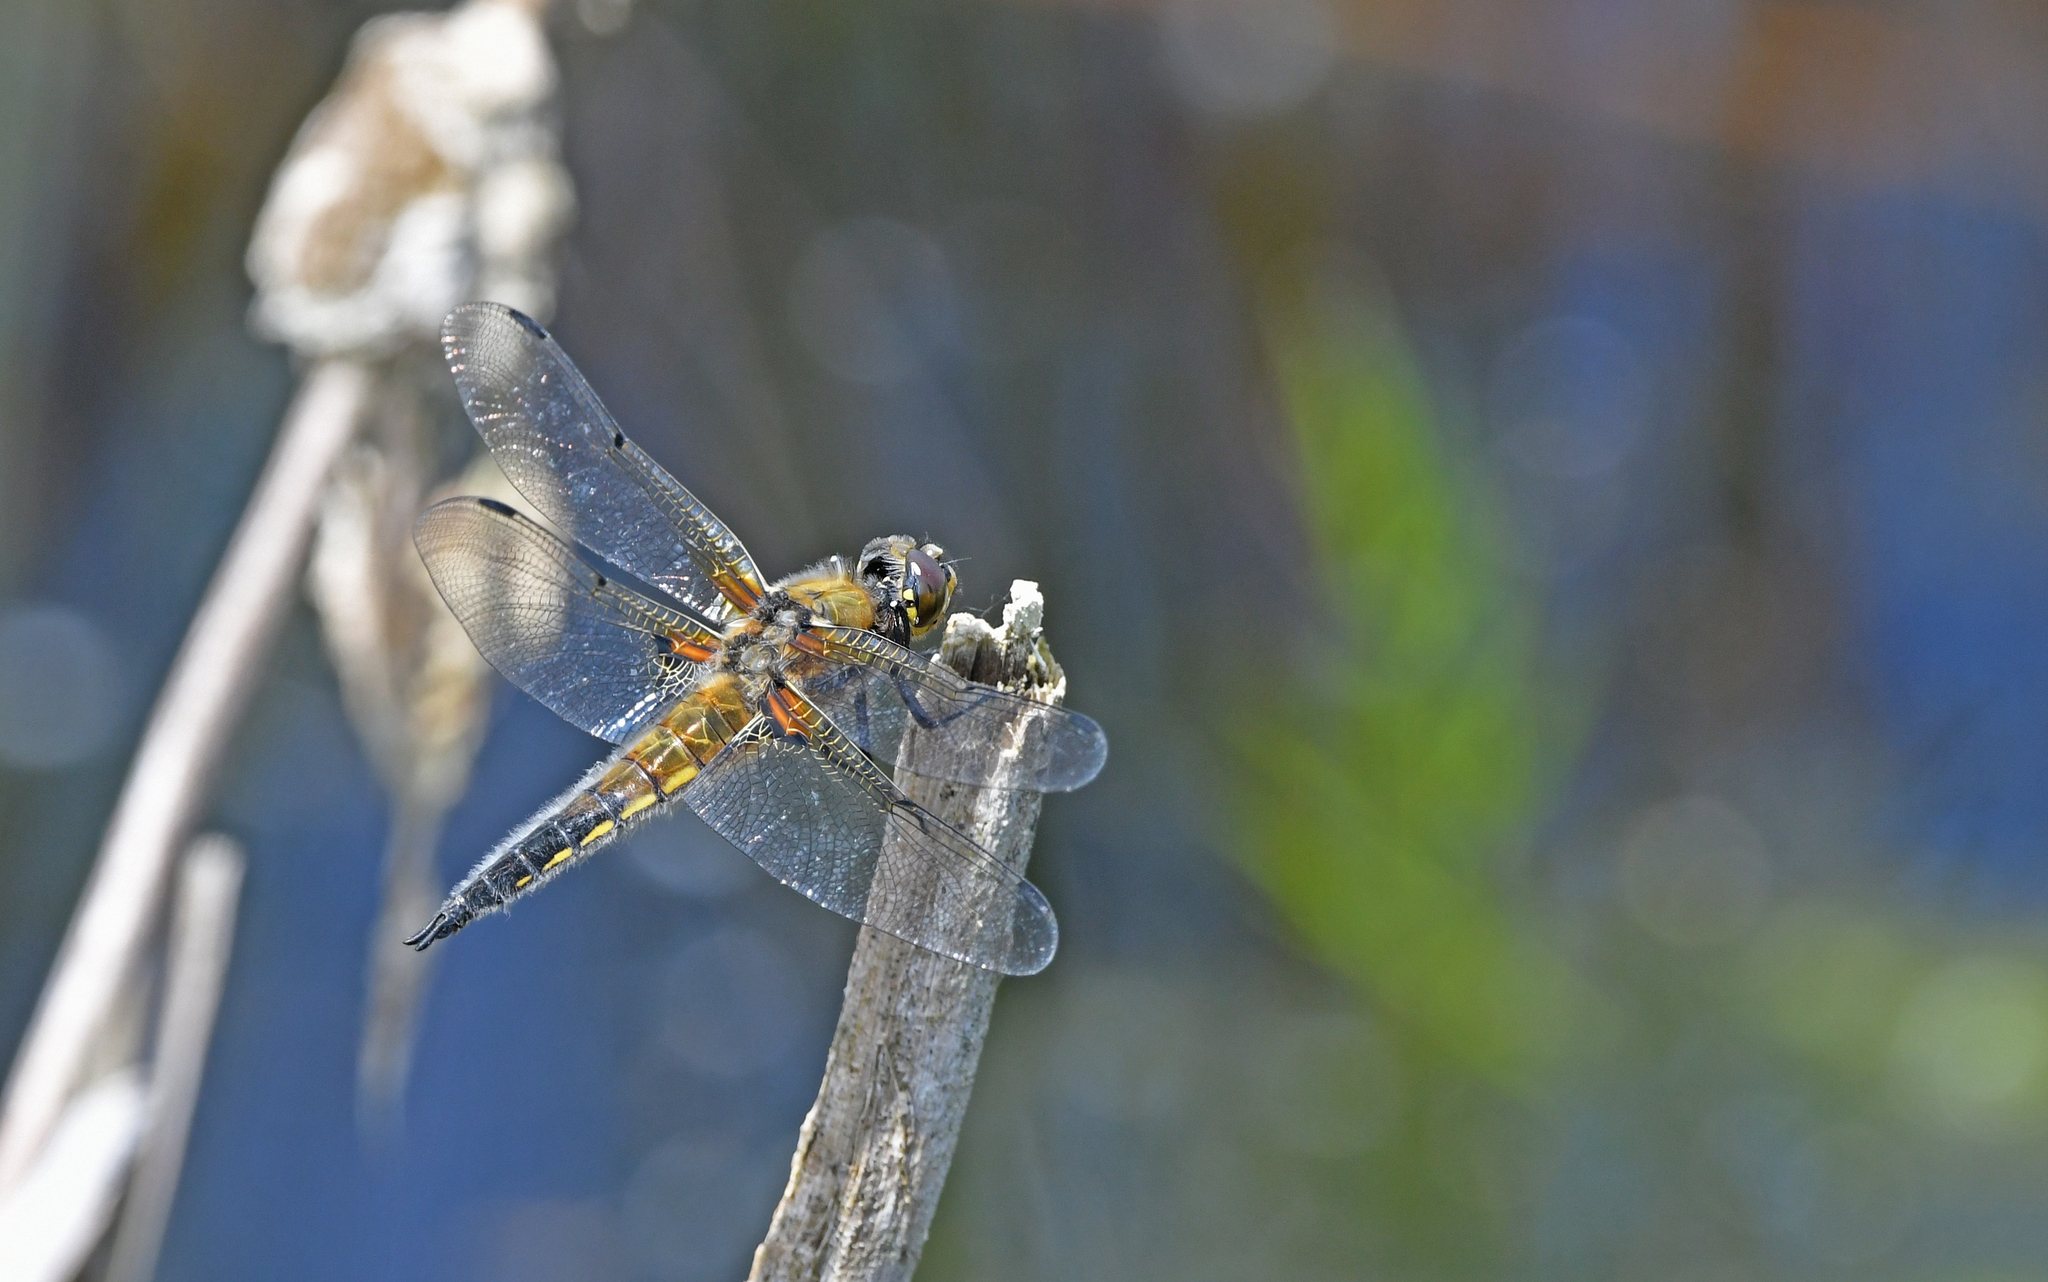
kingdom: Animalia
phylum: Arthropoda
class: Insecta
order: Odonata
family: Libellulidae
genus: Libellula
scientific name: Libellula quadrimaculata
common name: Four-spotted chaser
